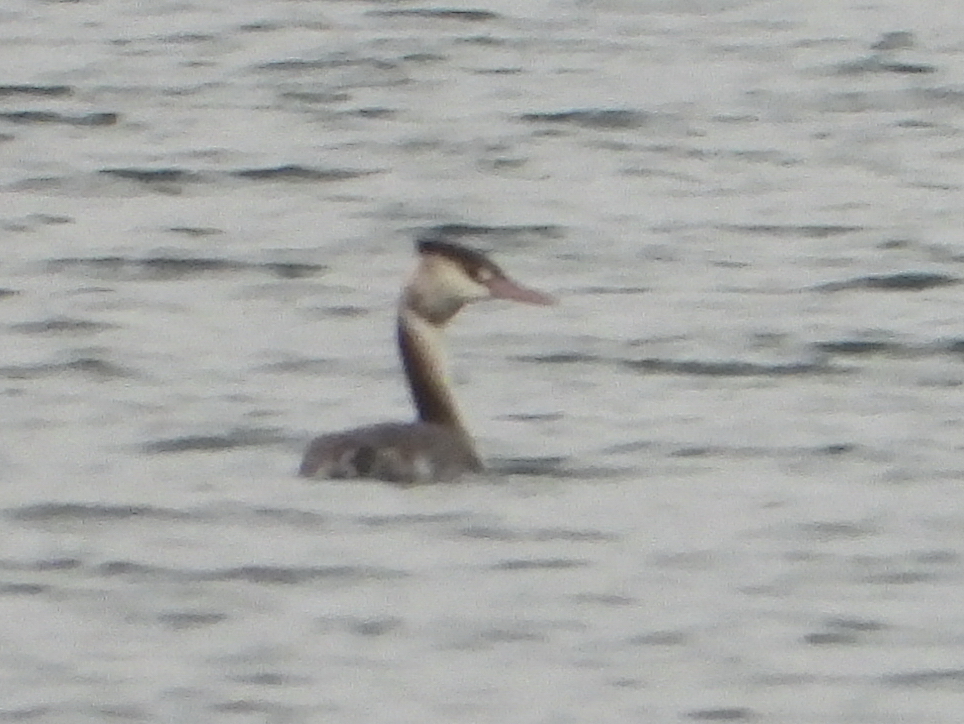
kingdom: Animalia
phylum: Chordata
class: Aves
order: Podicipediformes
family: Podicipedidae
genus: Podiceps
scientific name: Podiceps cristatus
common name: Great crested grebe
